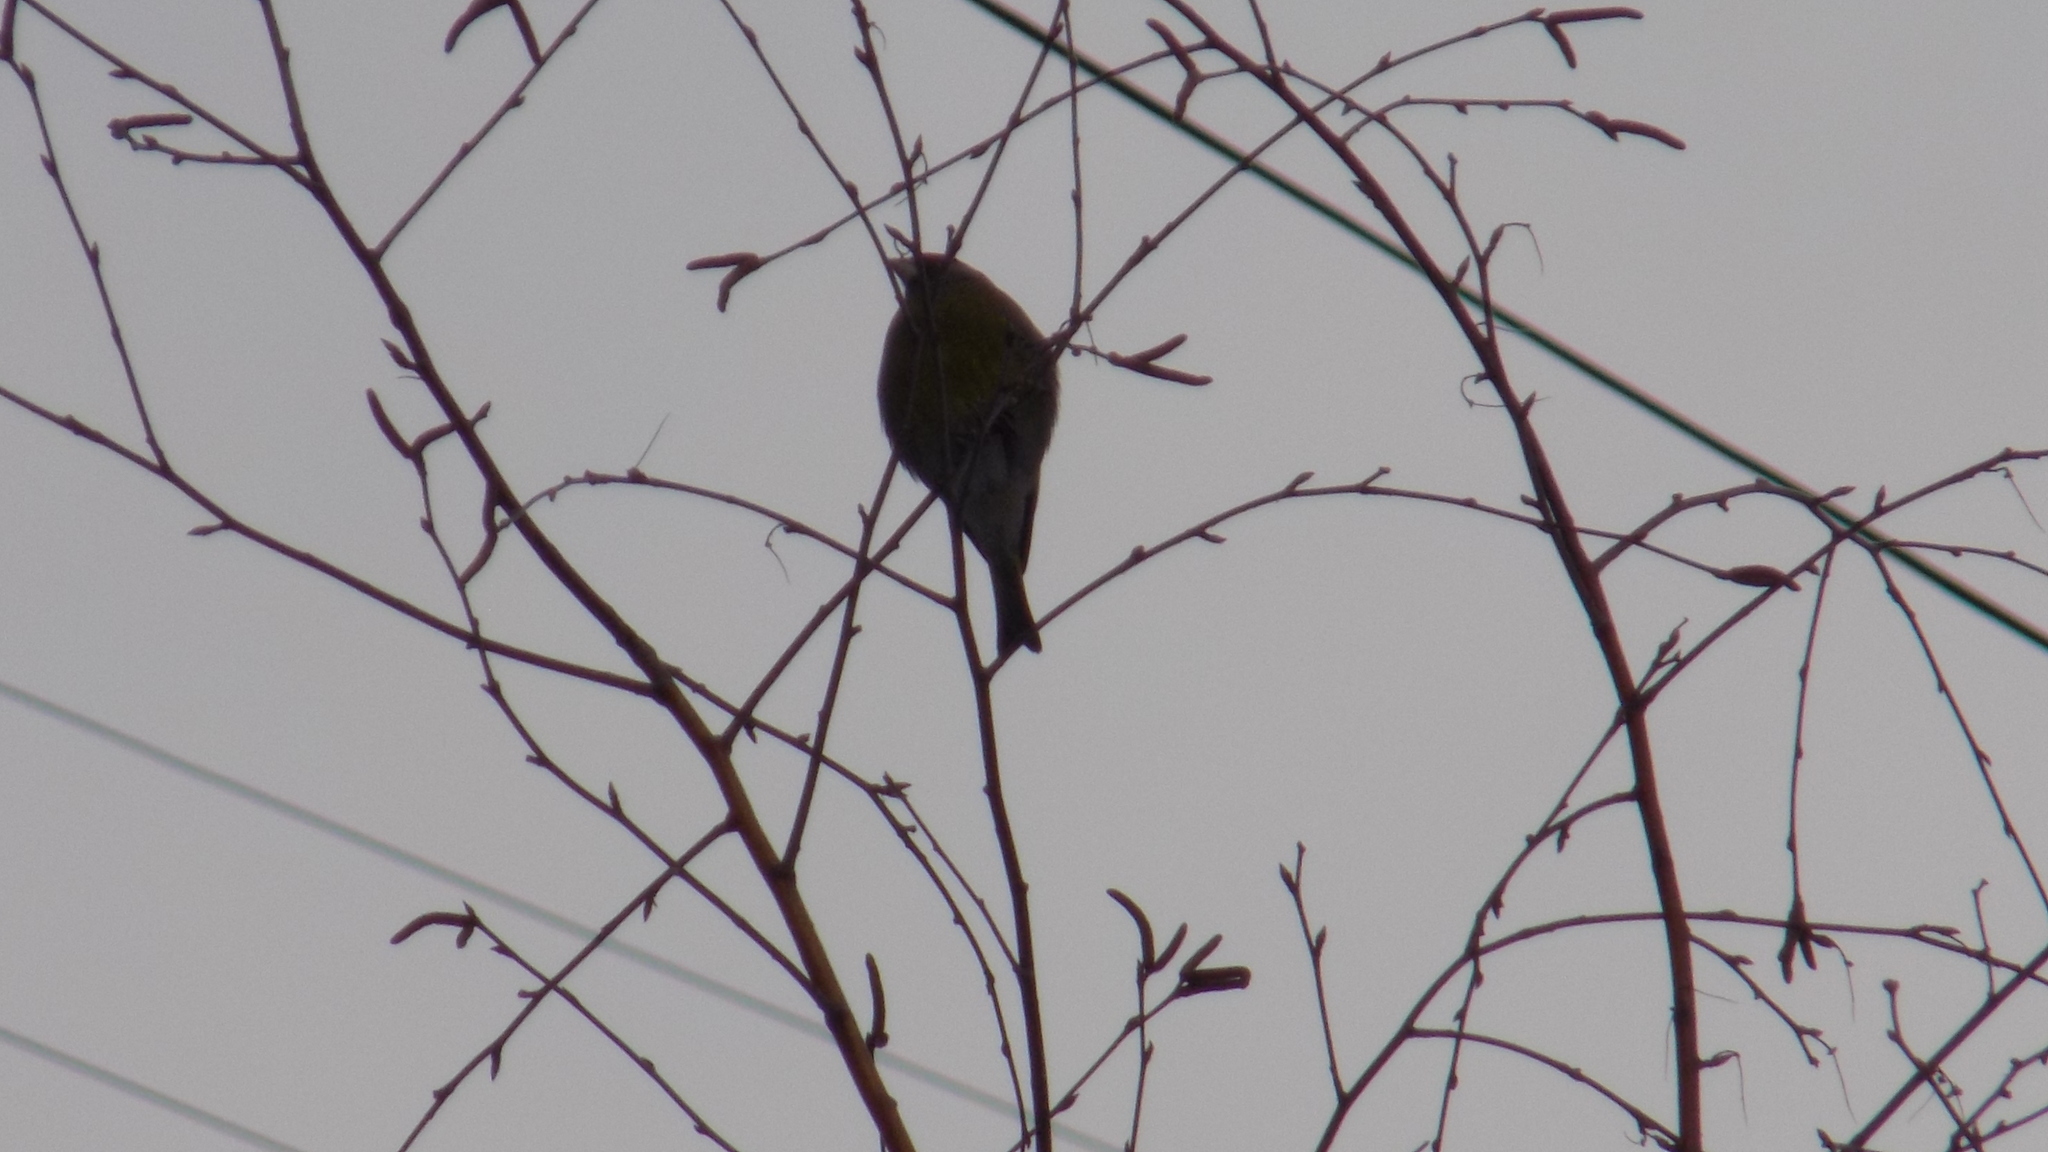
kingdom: Plantae
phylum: Tracheophyta
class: Liliopsida
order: Poales
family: Poaceae
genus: Chloris
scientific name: Chloris chloris
